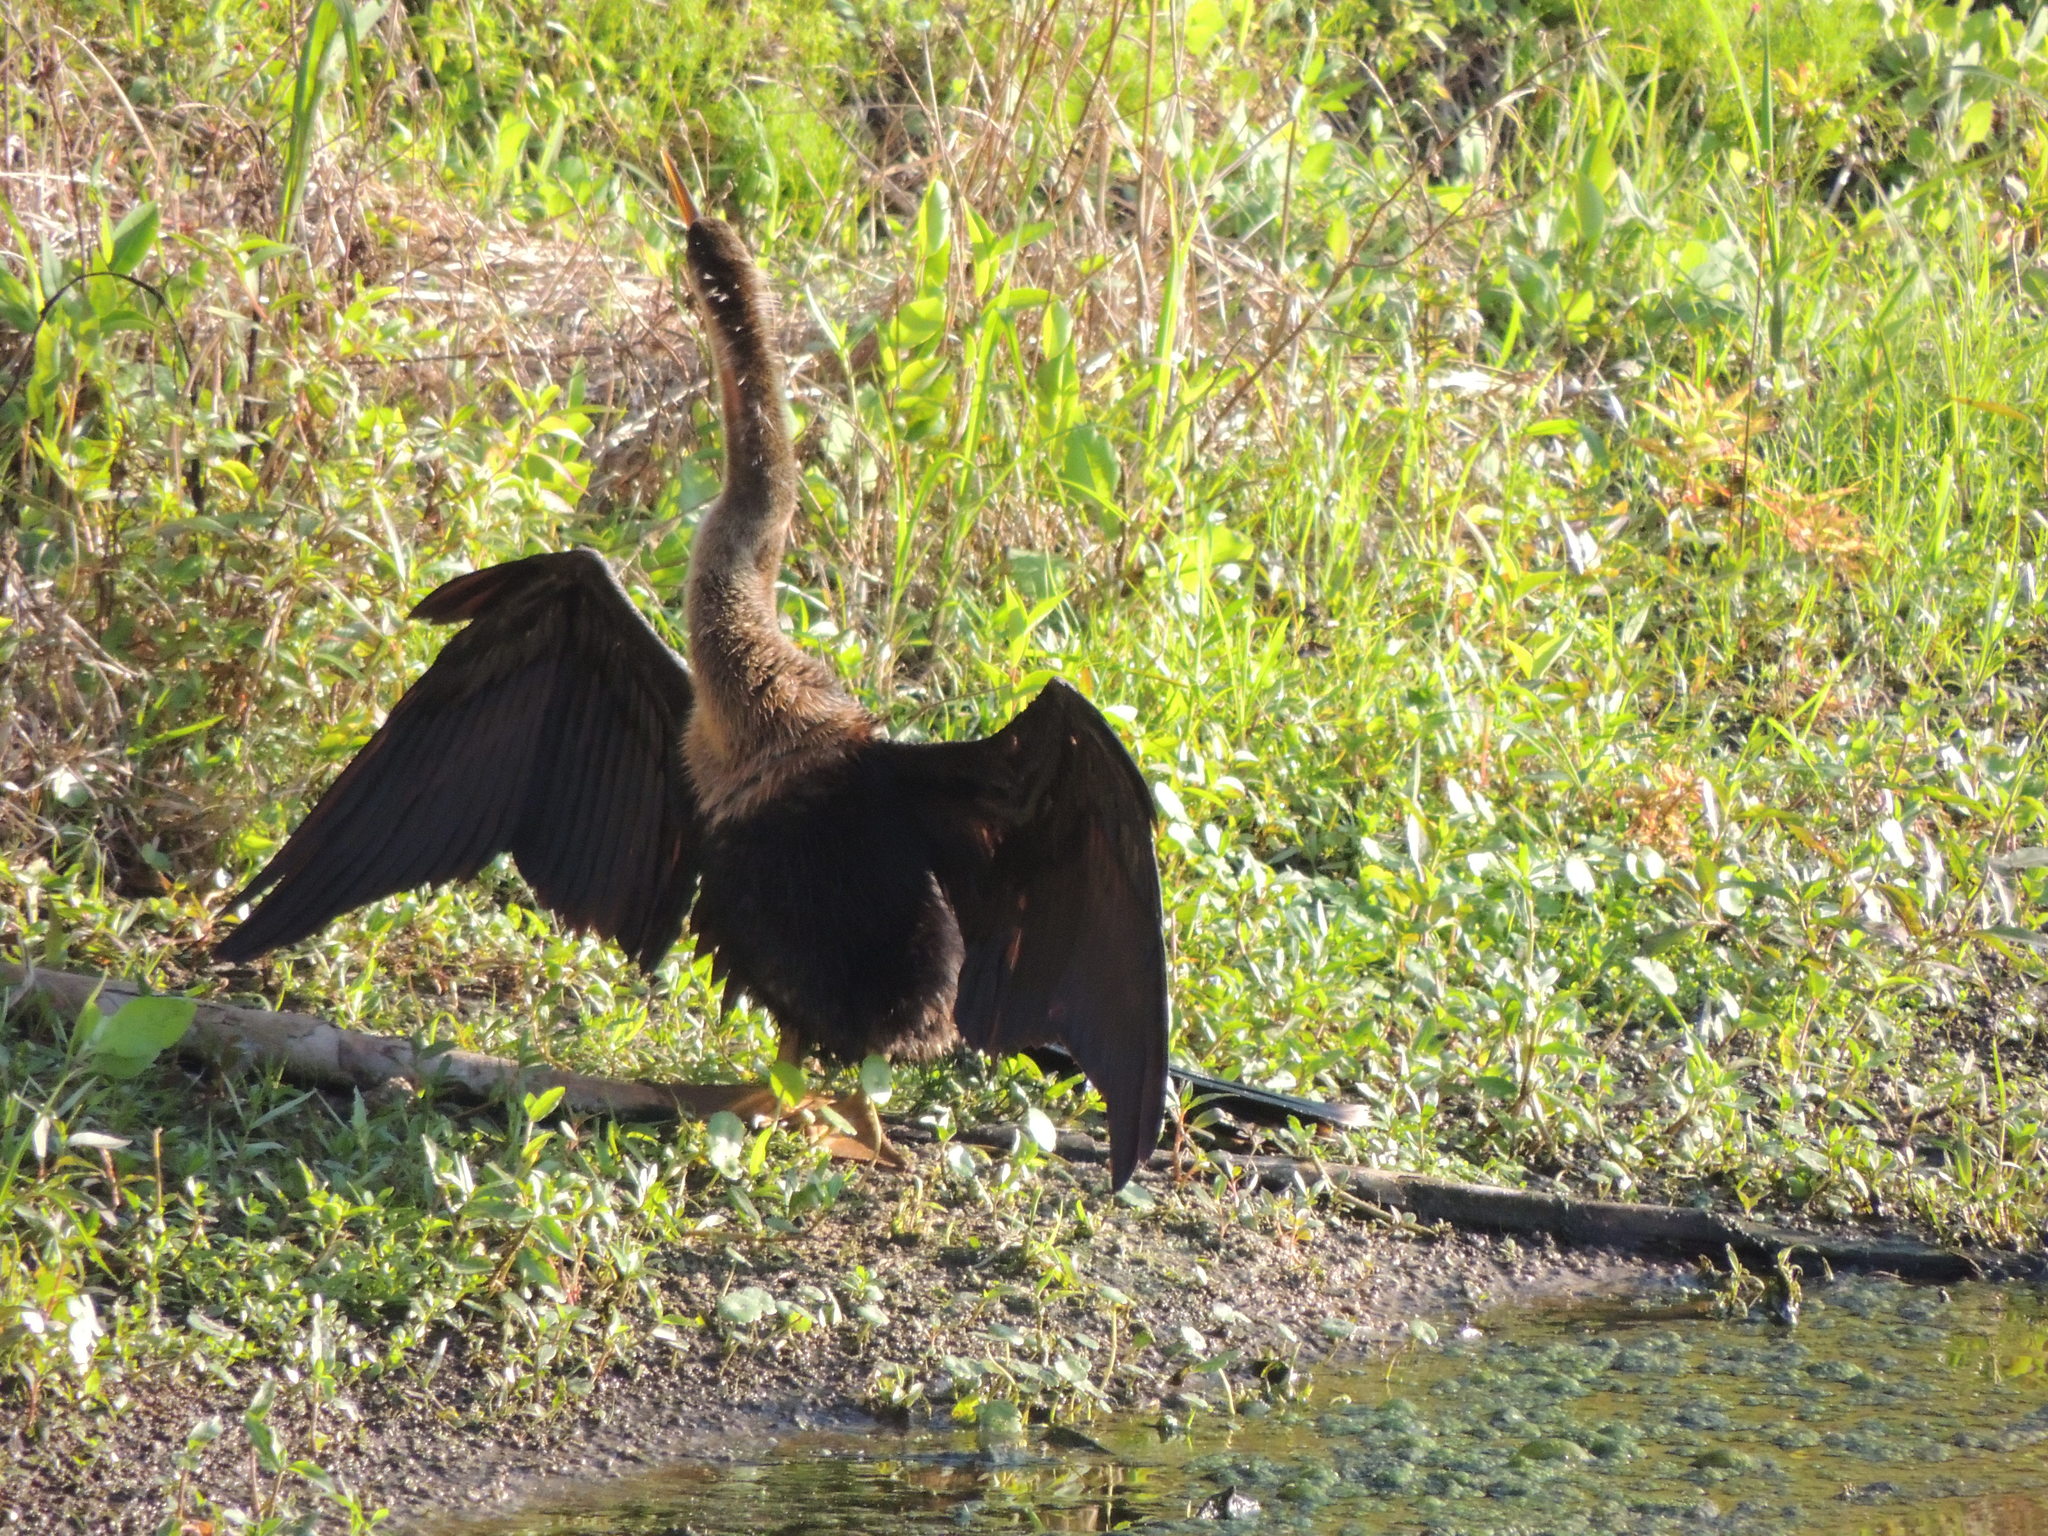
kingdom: Animalia
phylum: Chordata
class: Aves
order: Suliformes
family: Anhingidae
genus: Anhinga
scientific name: Anhinga anhinga
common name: Anhinga
